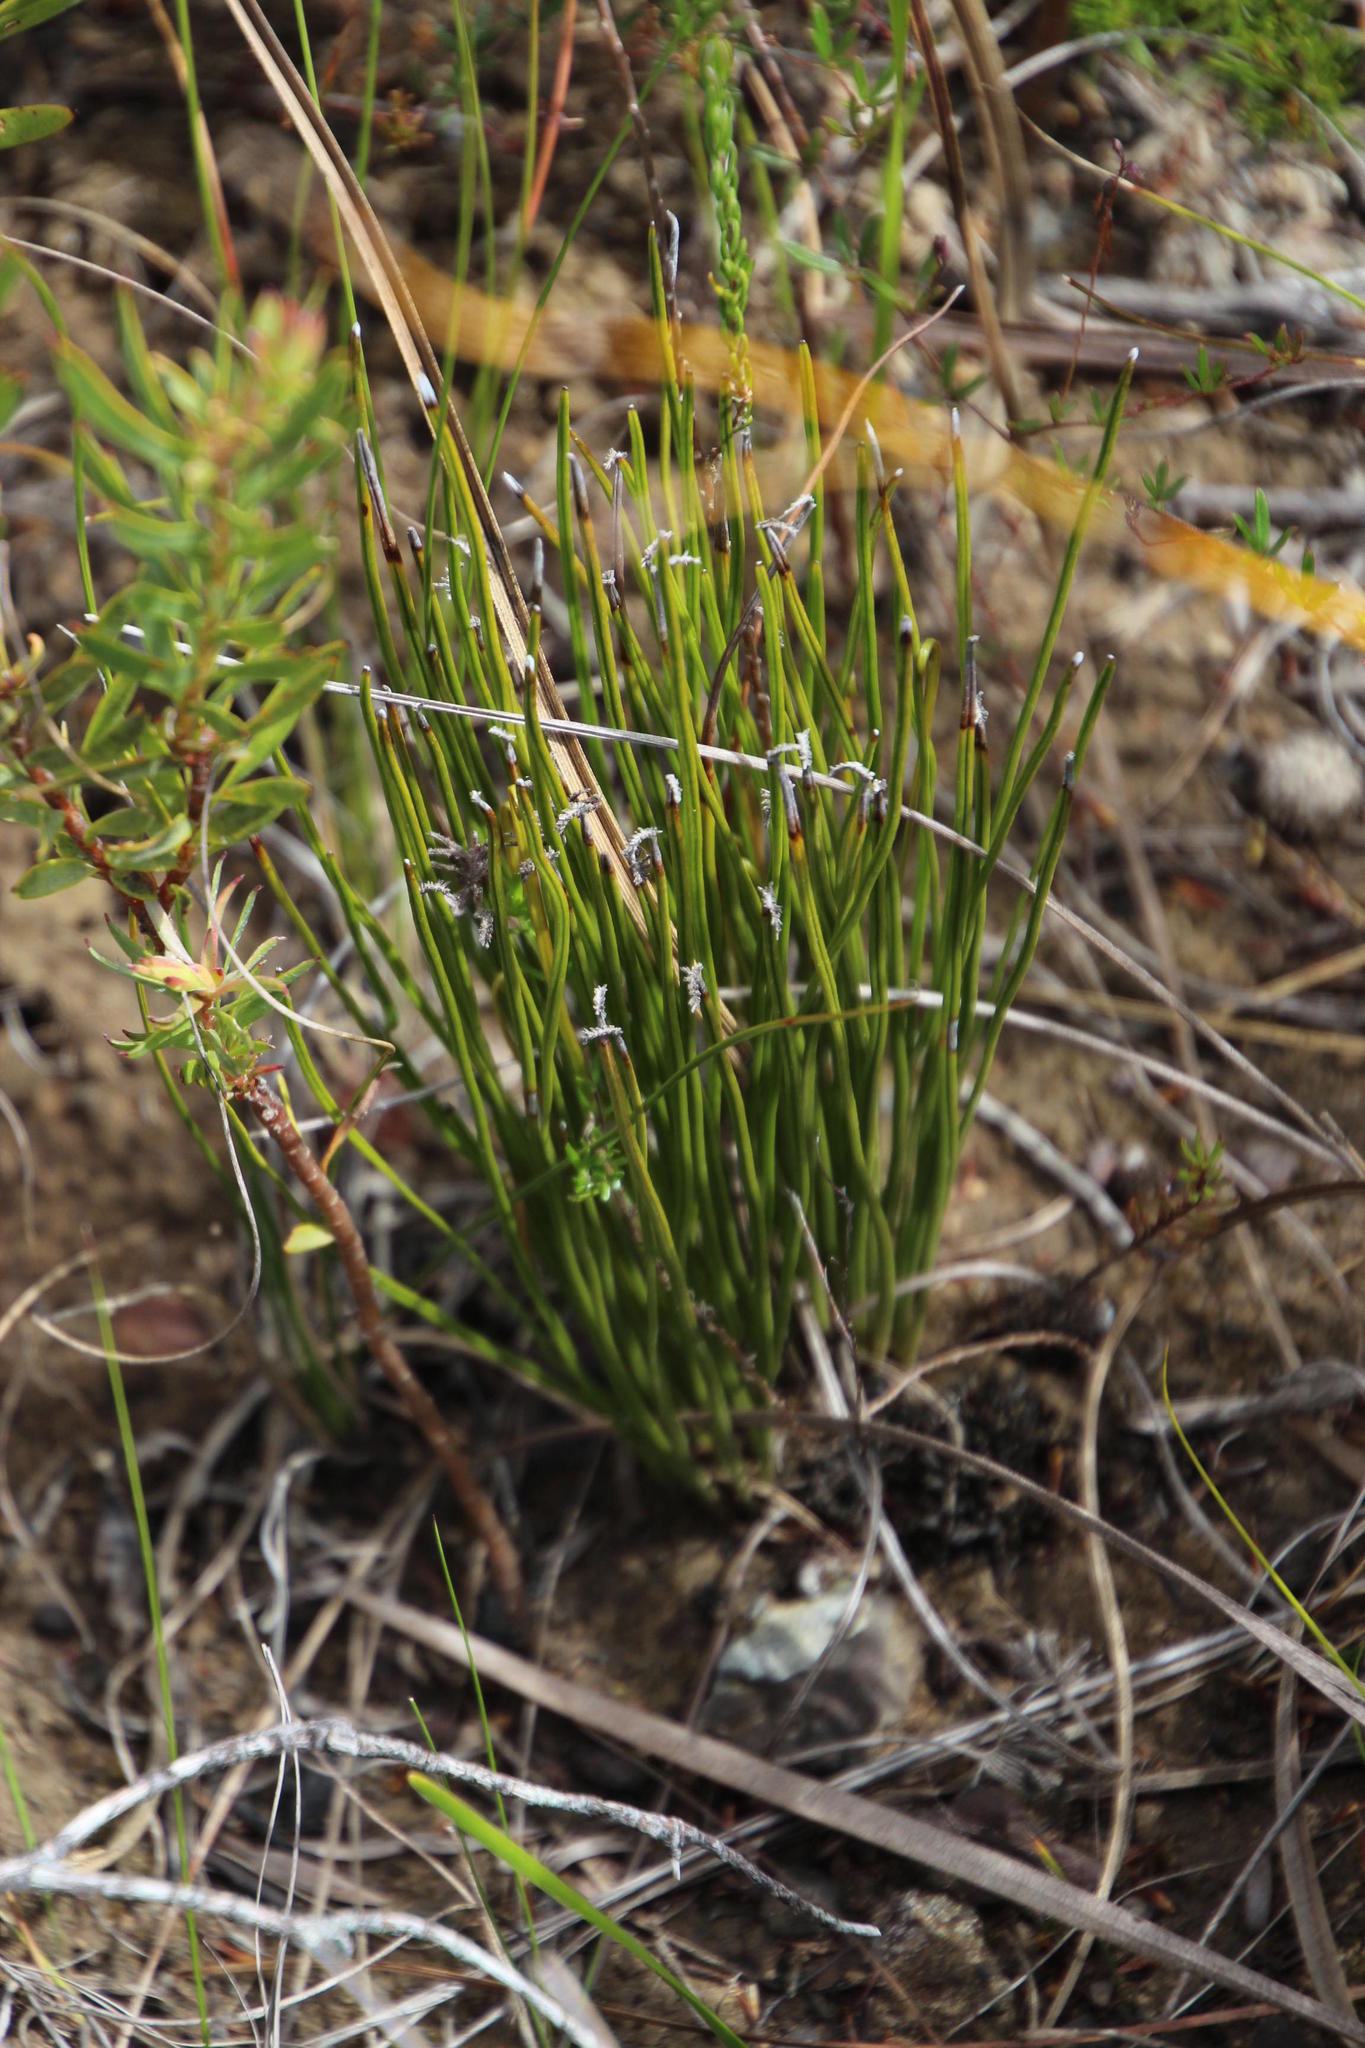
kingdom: Plantae
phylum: Tracheophyta
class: Polypodiopsida
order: Schizaeales
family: Schizaeaceae
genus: Schizaea
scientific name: Schizaea pectinata
